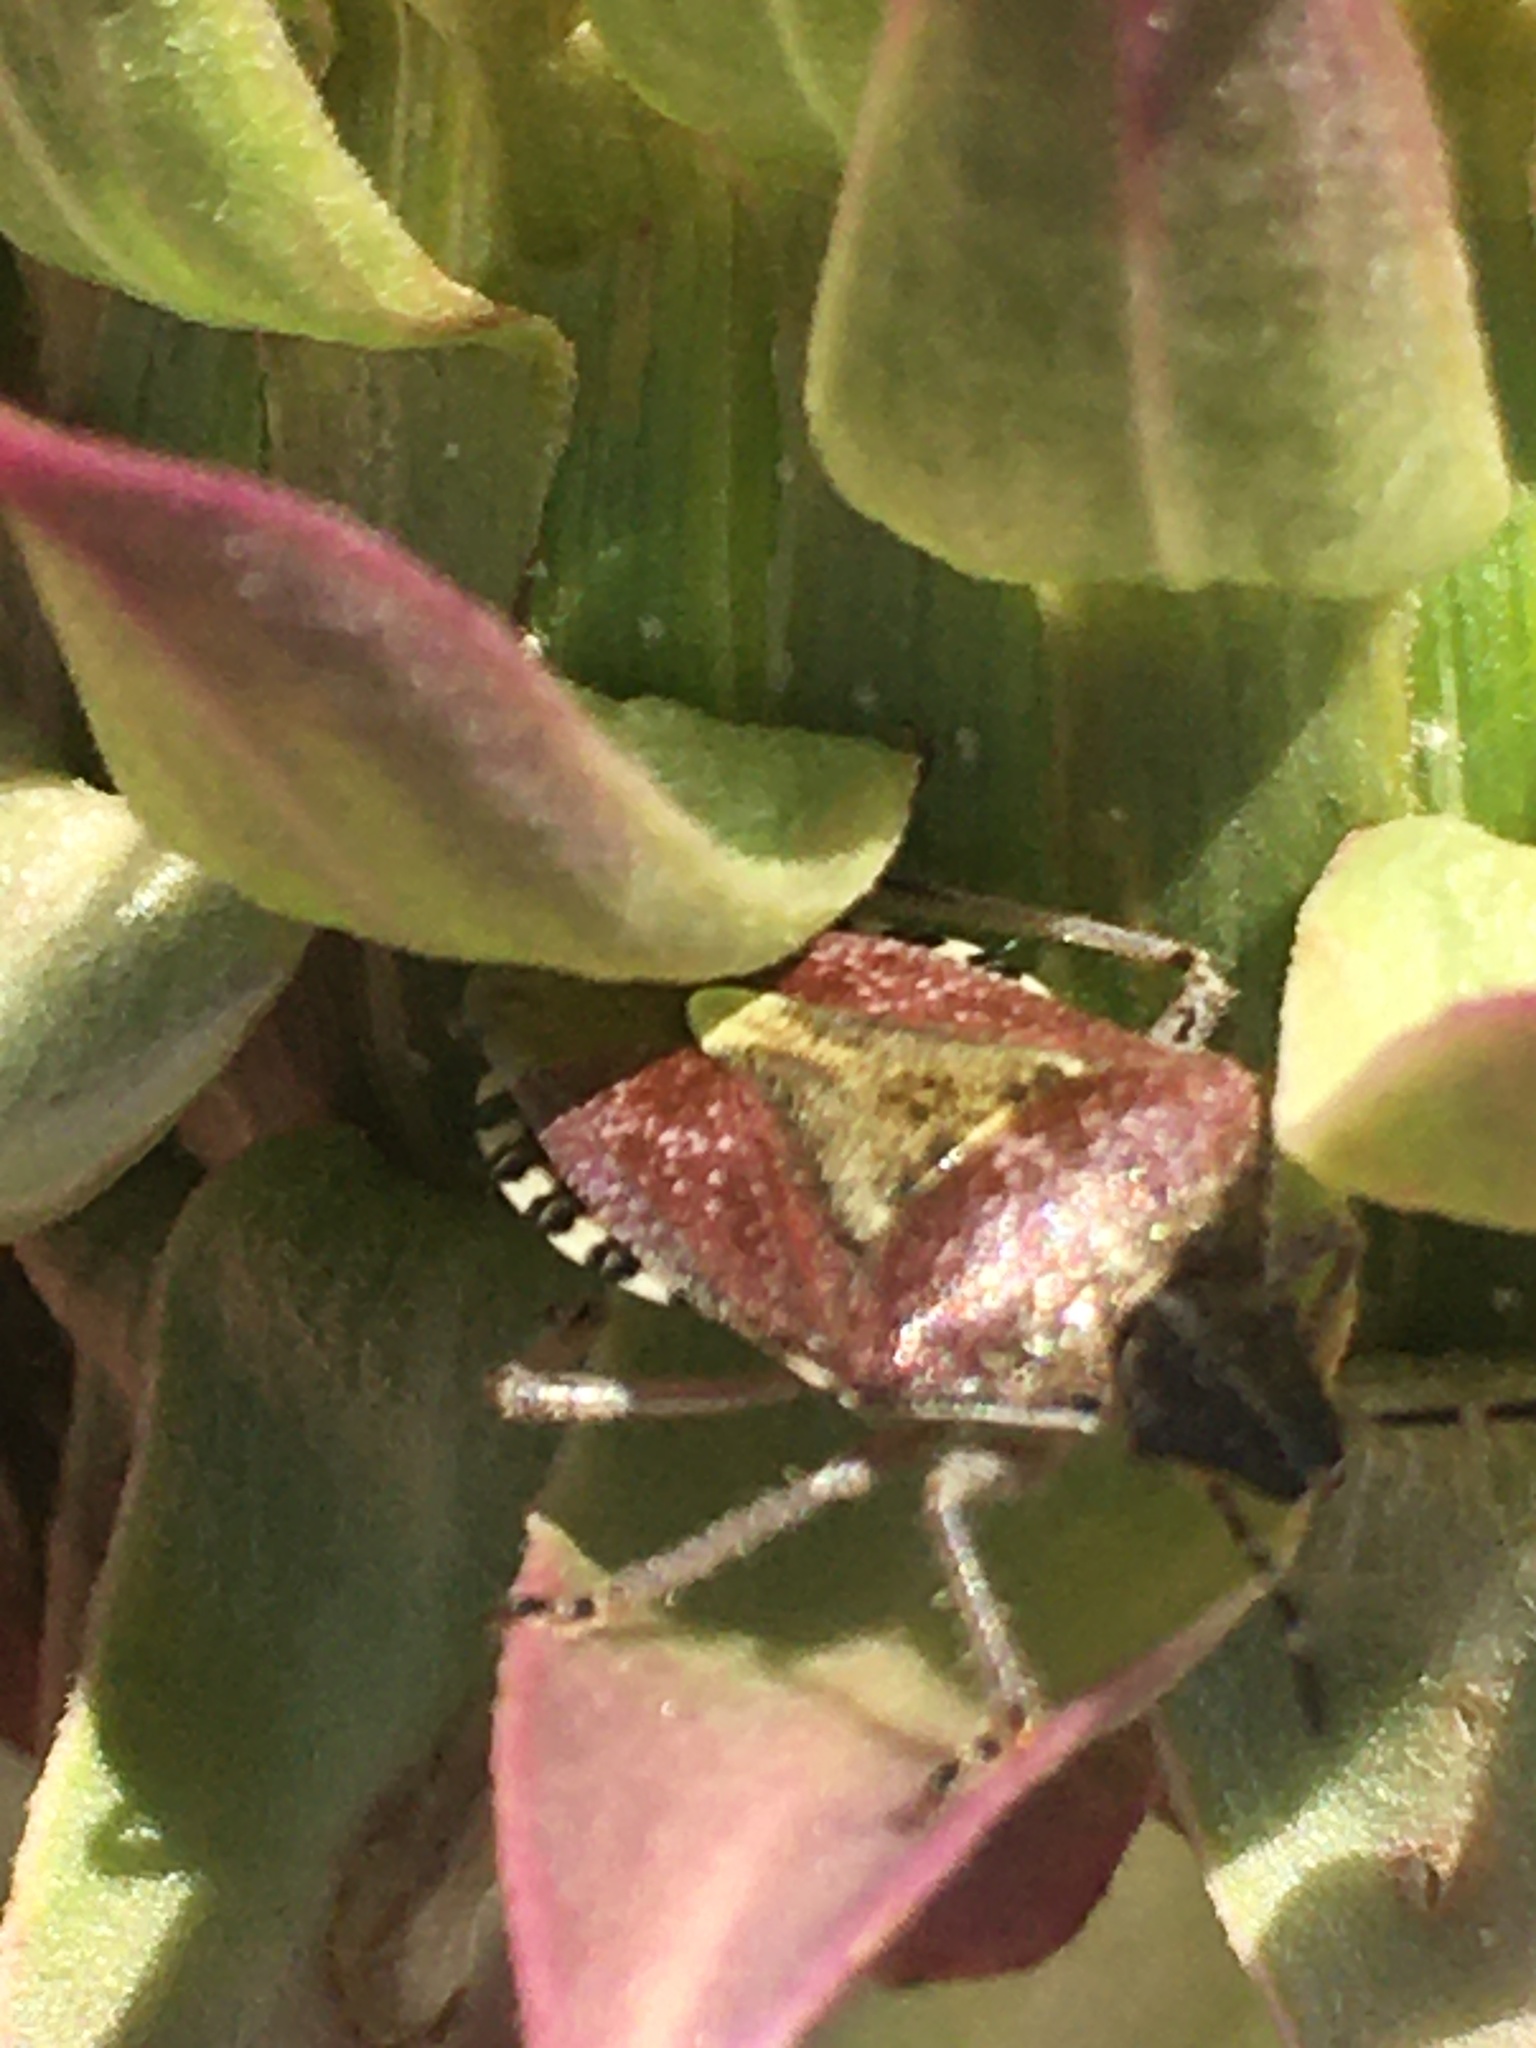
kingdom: Animalia
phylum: Arthropoda
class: Insecta
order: Hemiptera
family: Pentatomidae
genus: Dolycoris
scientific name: Dolycoris baccarum
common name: Sloe bug
